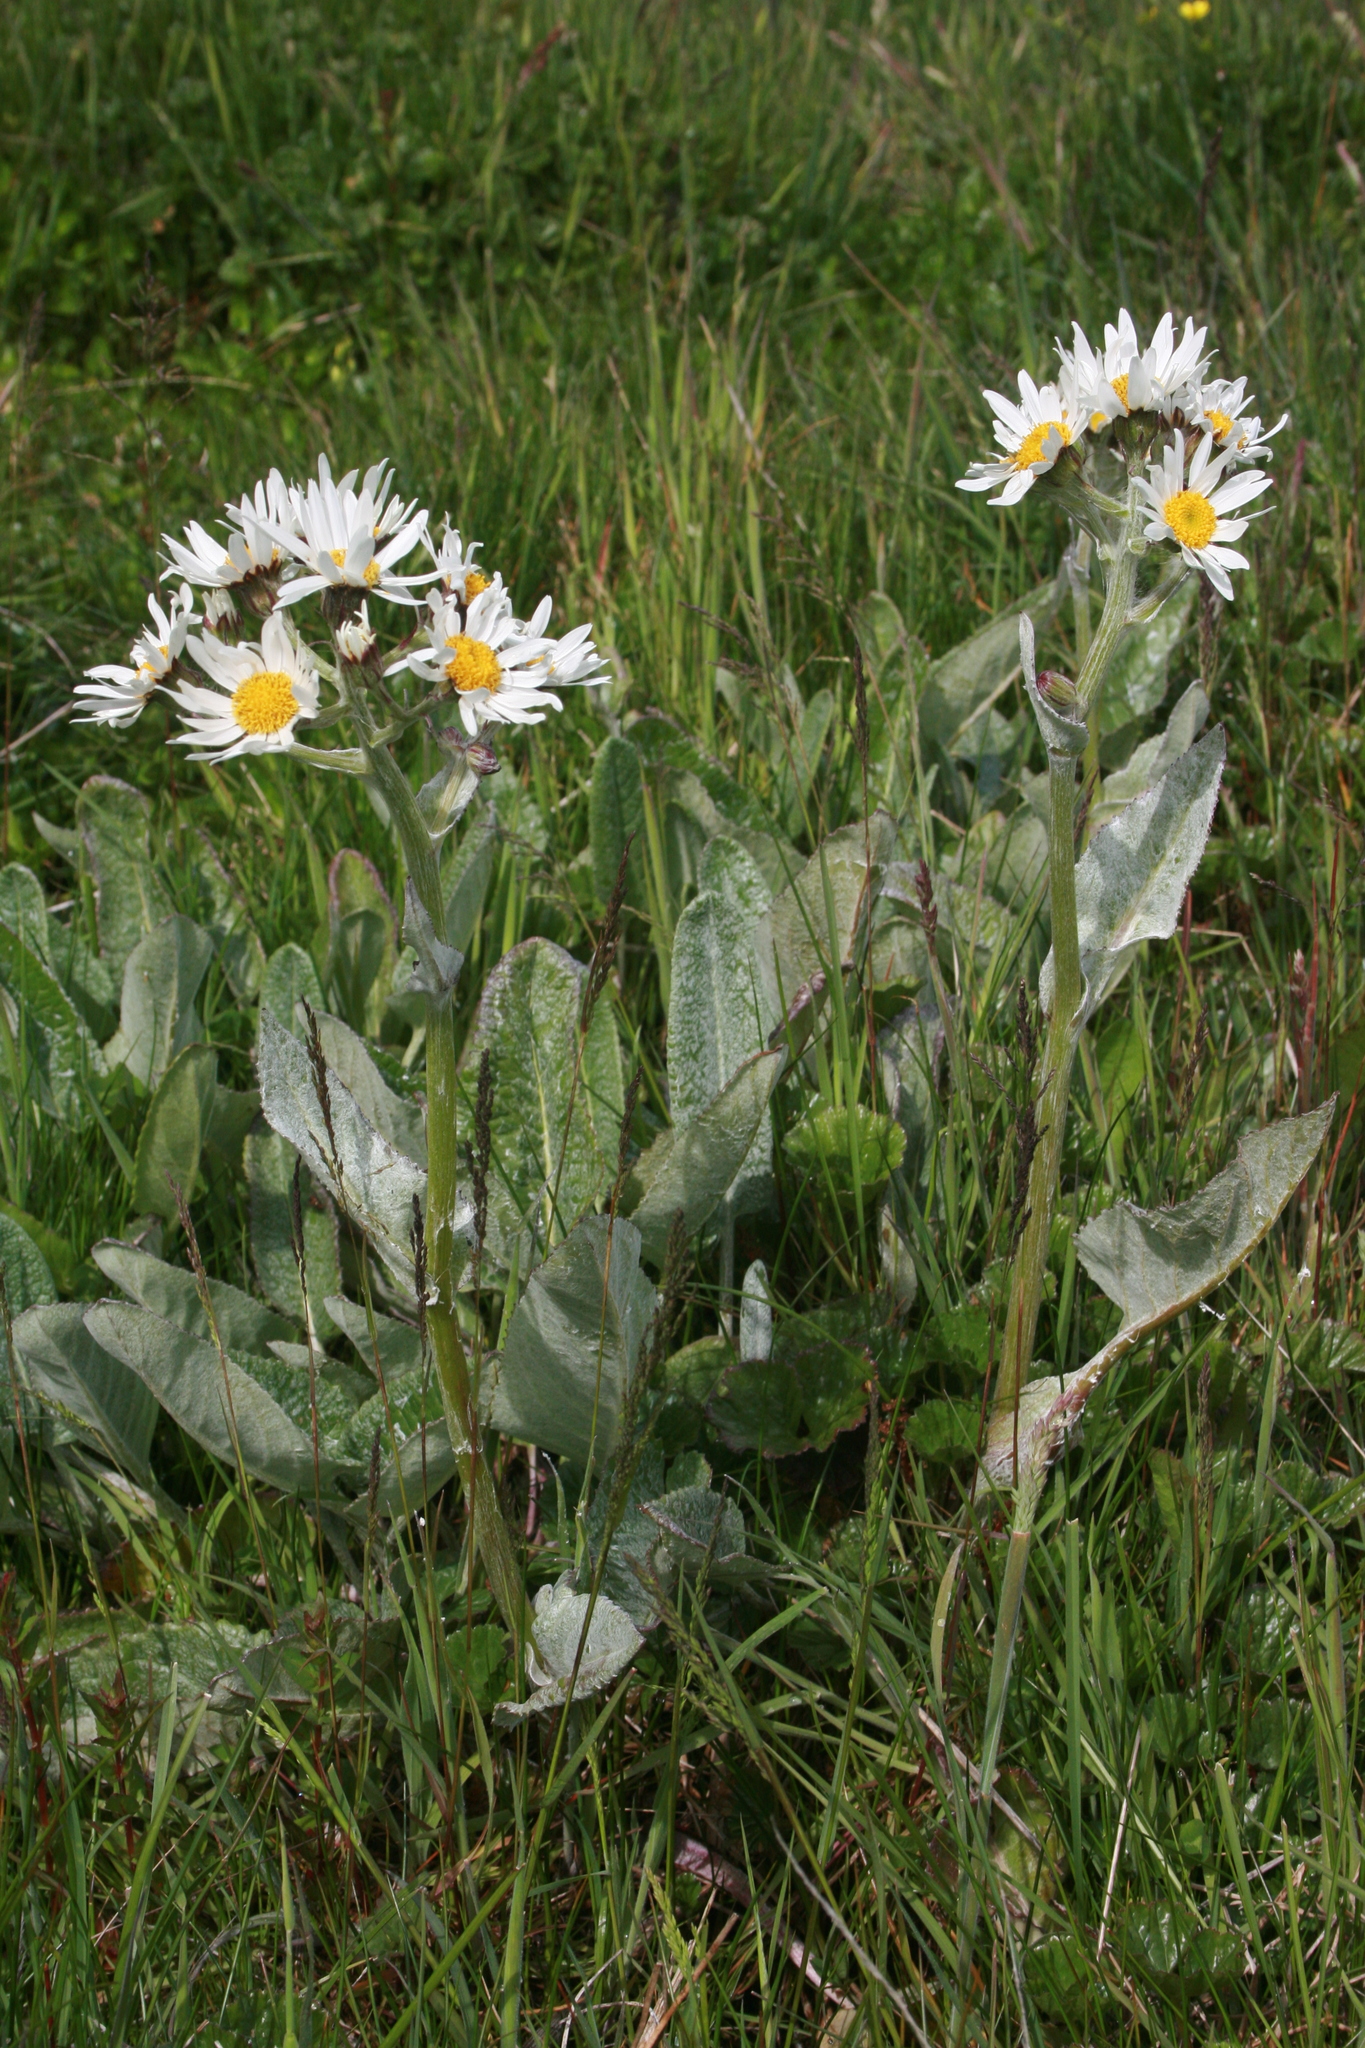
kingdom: Plantae
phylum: Tracheophyta
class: Magnoliopsida
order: Asterales
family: Asteraceae
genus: Senecio
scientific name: Senecio smithii
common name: Magellan ragwort
